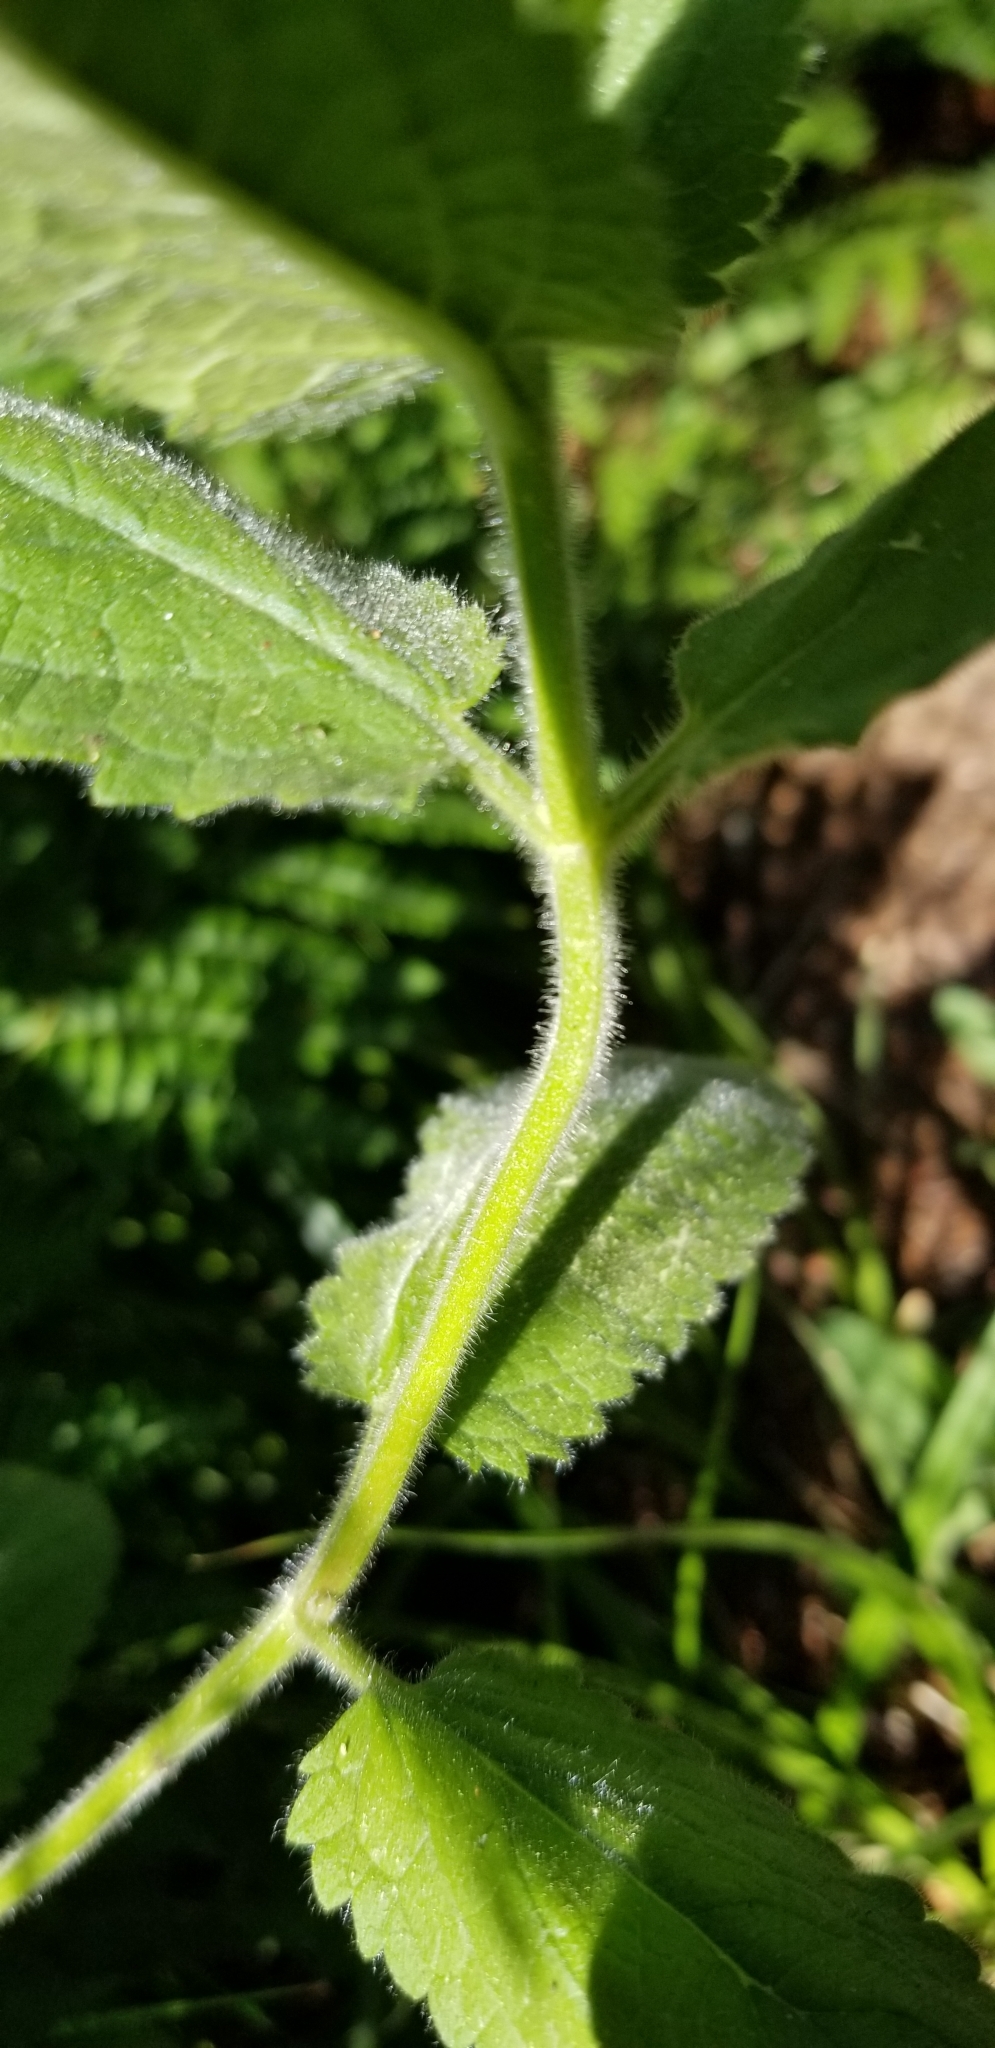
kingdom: Plantae
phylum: Tracheophyta
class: Magnoliopsida
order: Lamiales
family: Lamiaceae
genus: Stachys
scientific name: Stachys rigida
